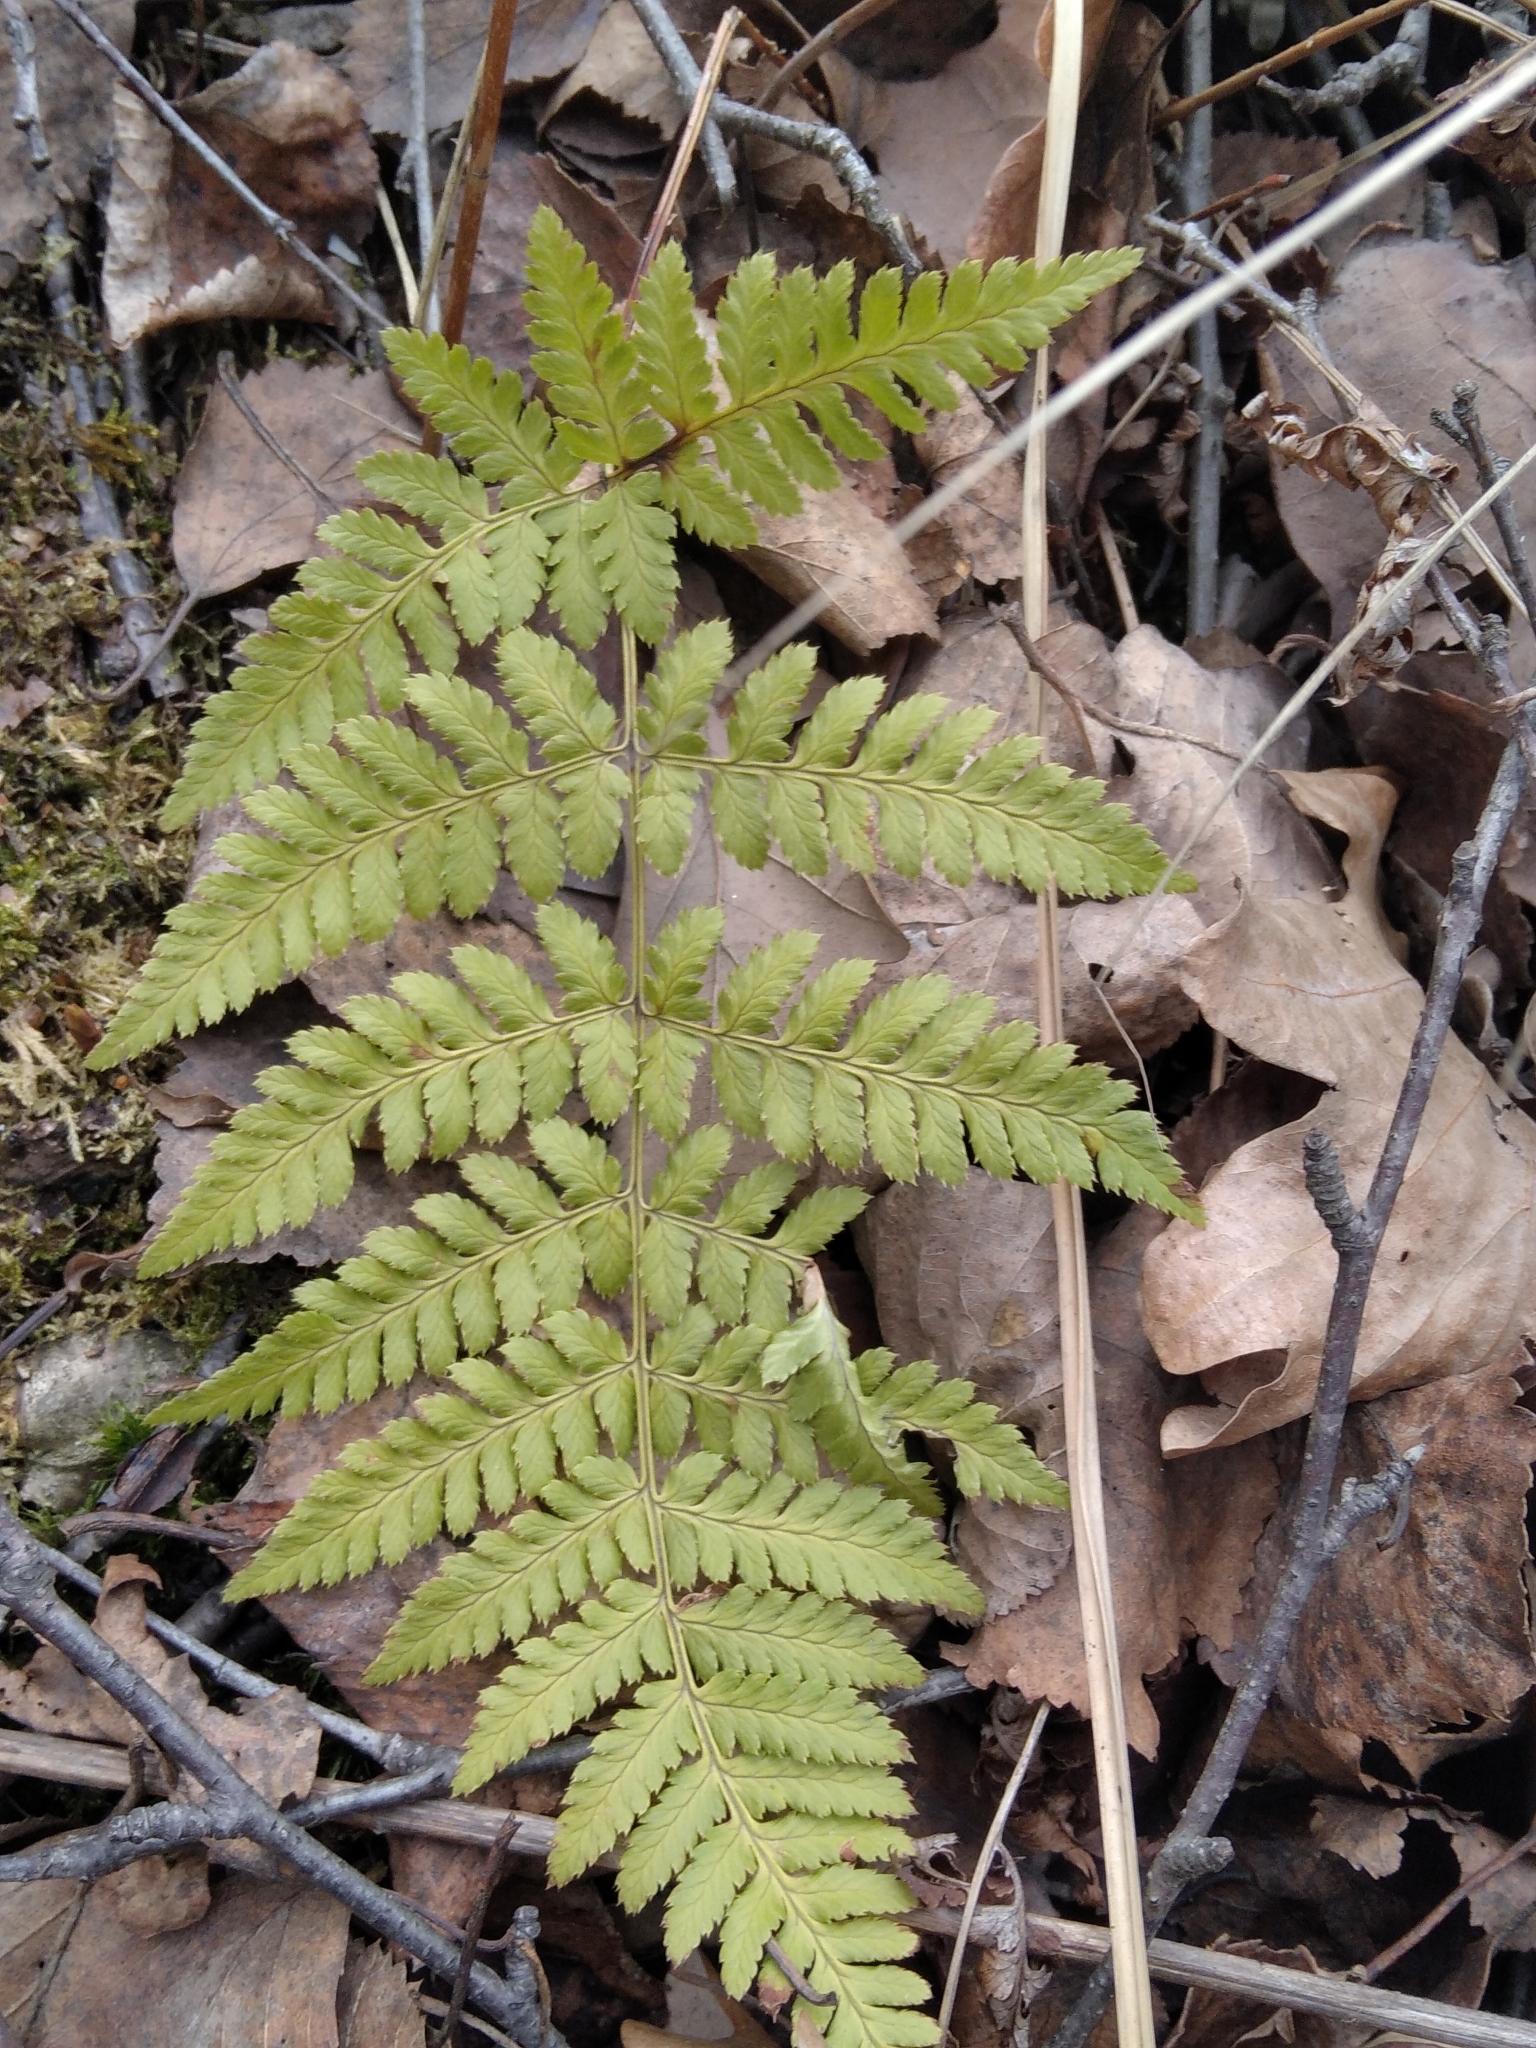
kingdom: Plantae
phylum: Tracheophyta
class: Polypodiopsida
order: Polypodiales
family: Dryopteridaceae
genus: Dryopteris
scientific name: Dryopteris carthusiana
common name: Narrow buckler-fern
